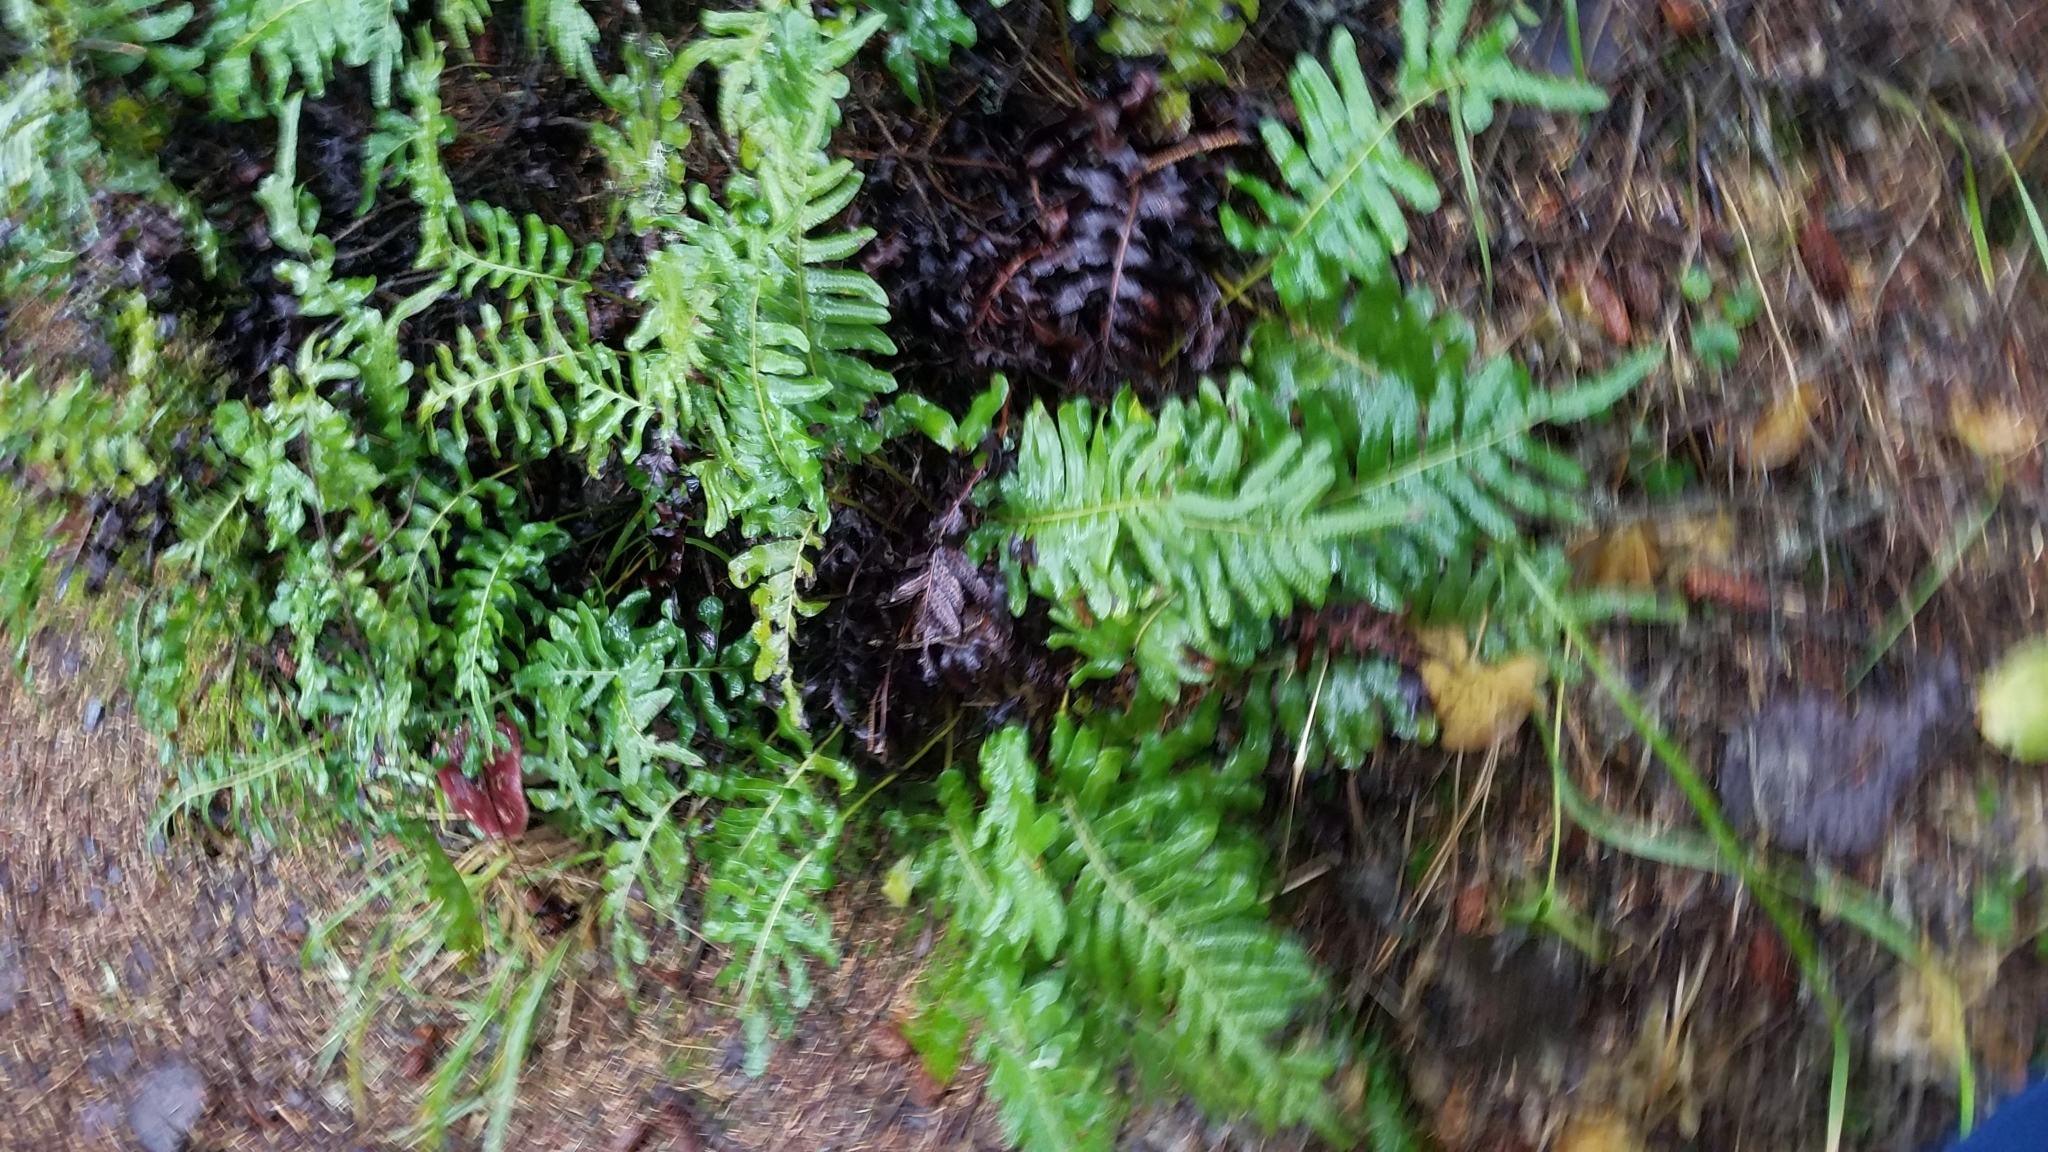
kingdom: Plantae
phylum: Tracheophyta
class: Polypodiopsida
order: Polypodiales
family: Polypodiaceae
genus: Polypodium
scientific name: Polypodium scouleri
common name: Scouler's polypody
